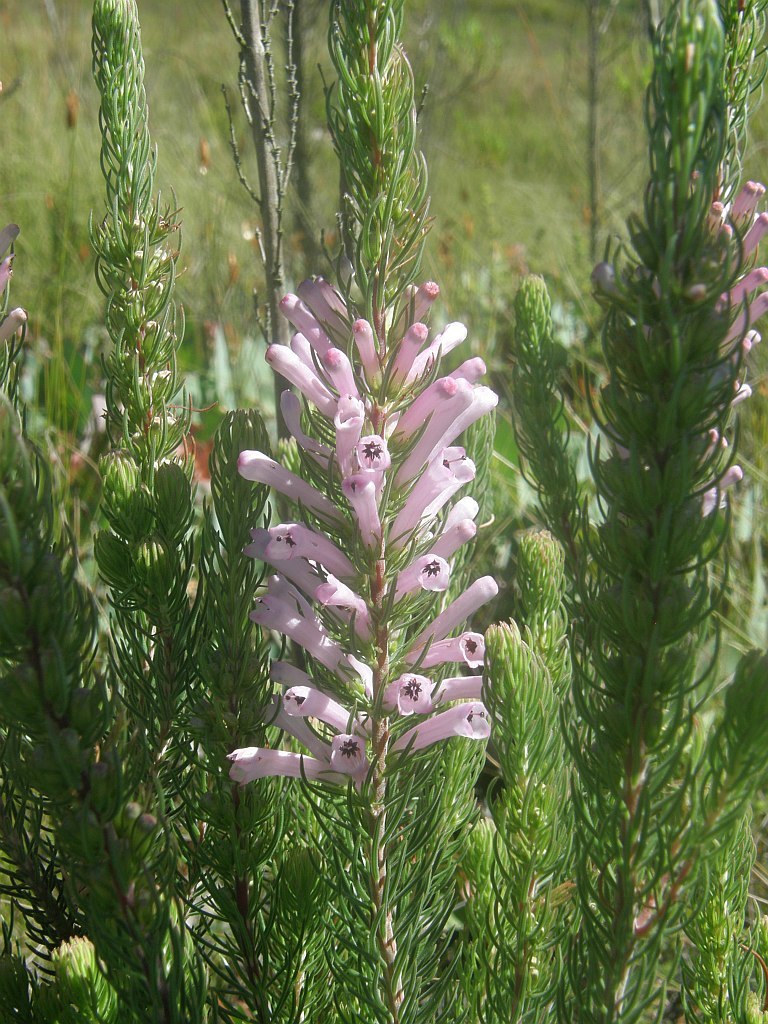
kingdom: Plantae
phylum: Tracheophyta
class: Magnoliopsida
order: Ericales
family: Ericaceae
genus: Erica
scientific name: Erica pinea
